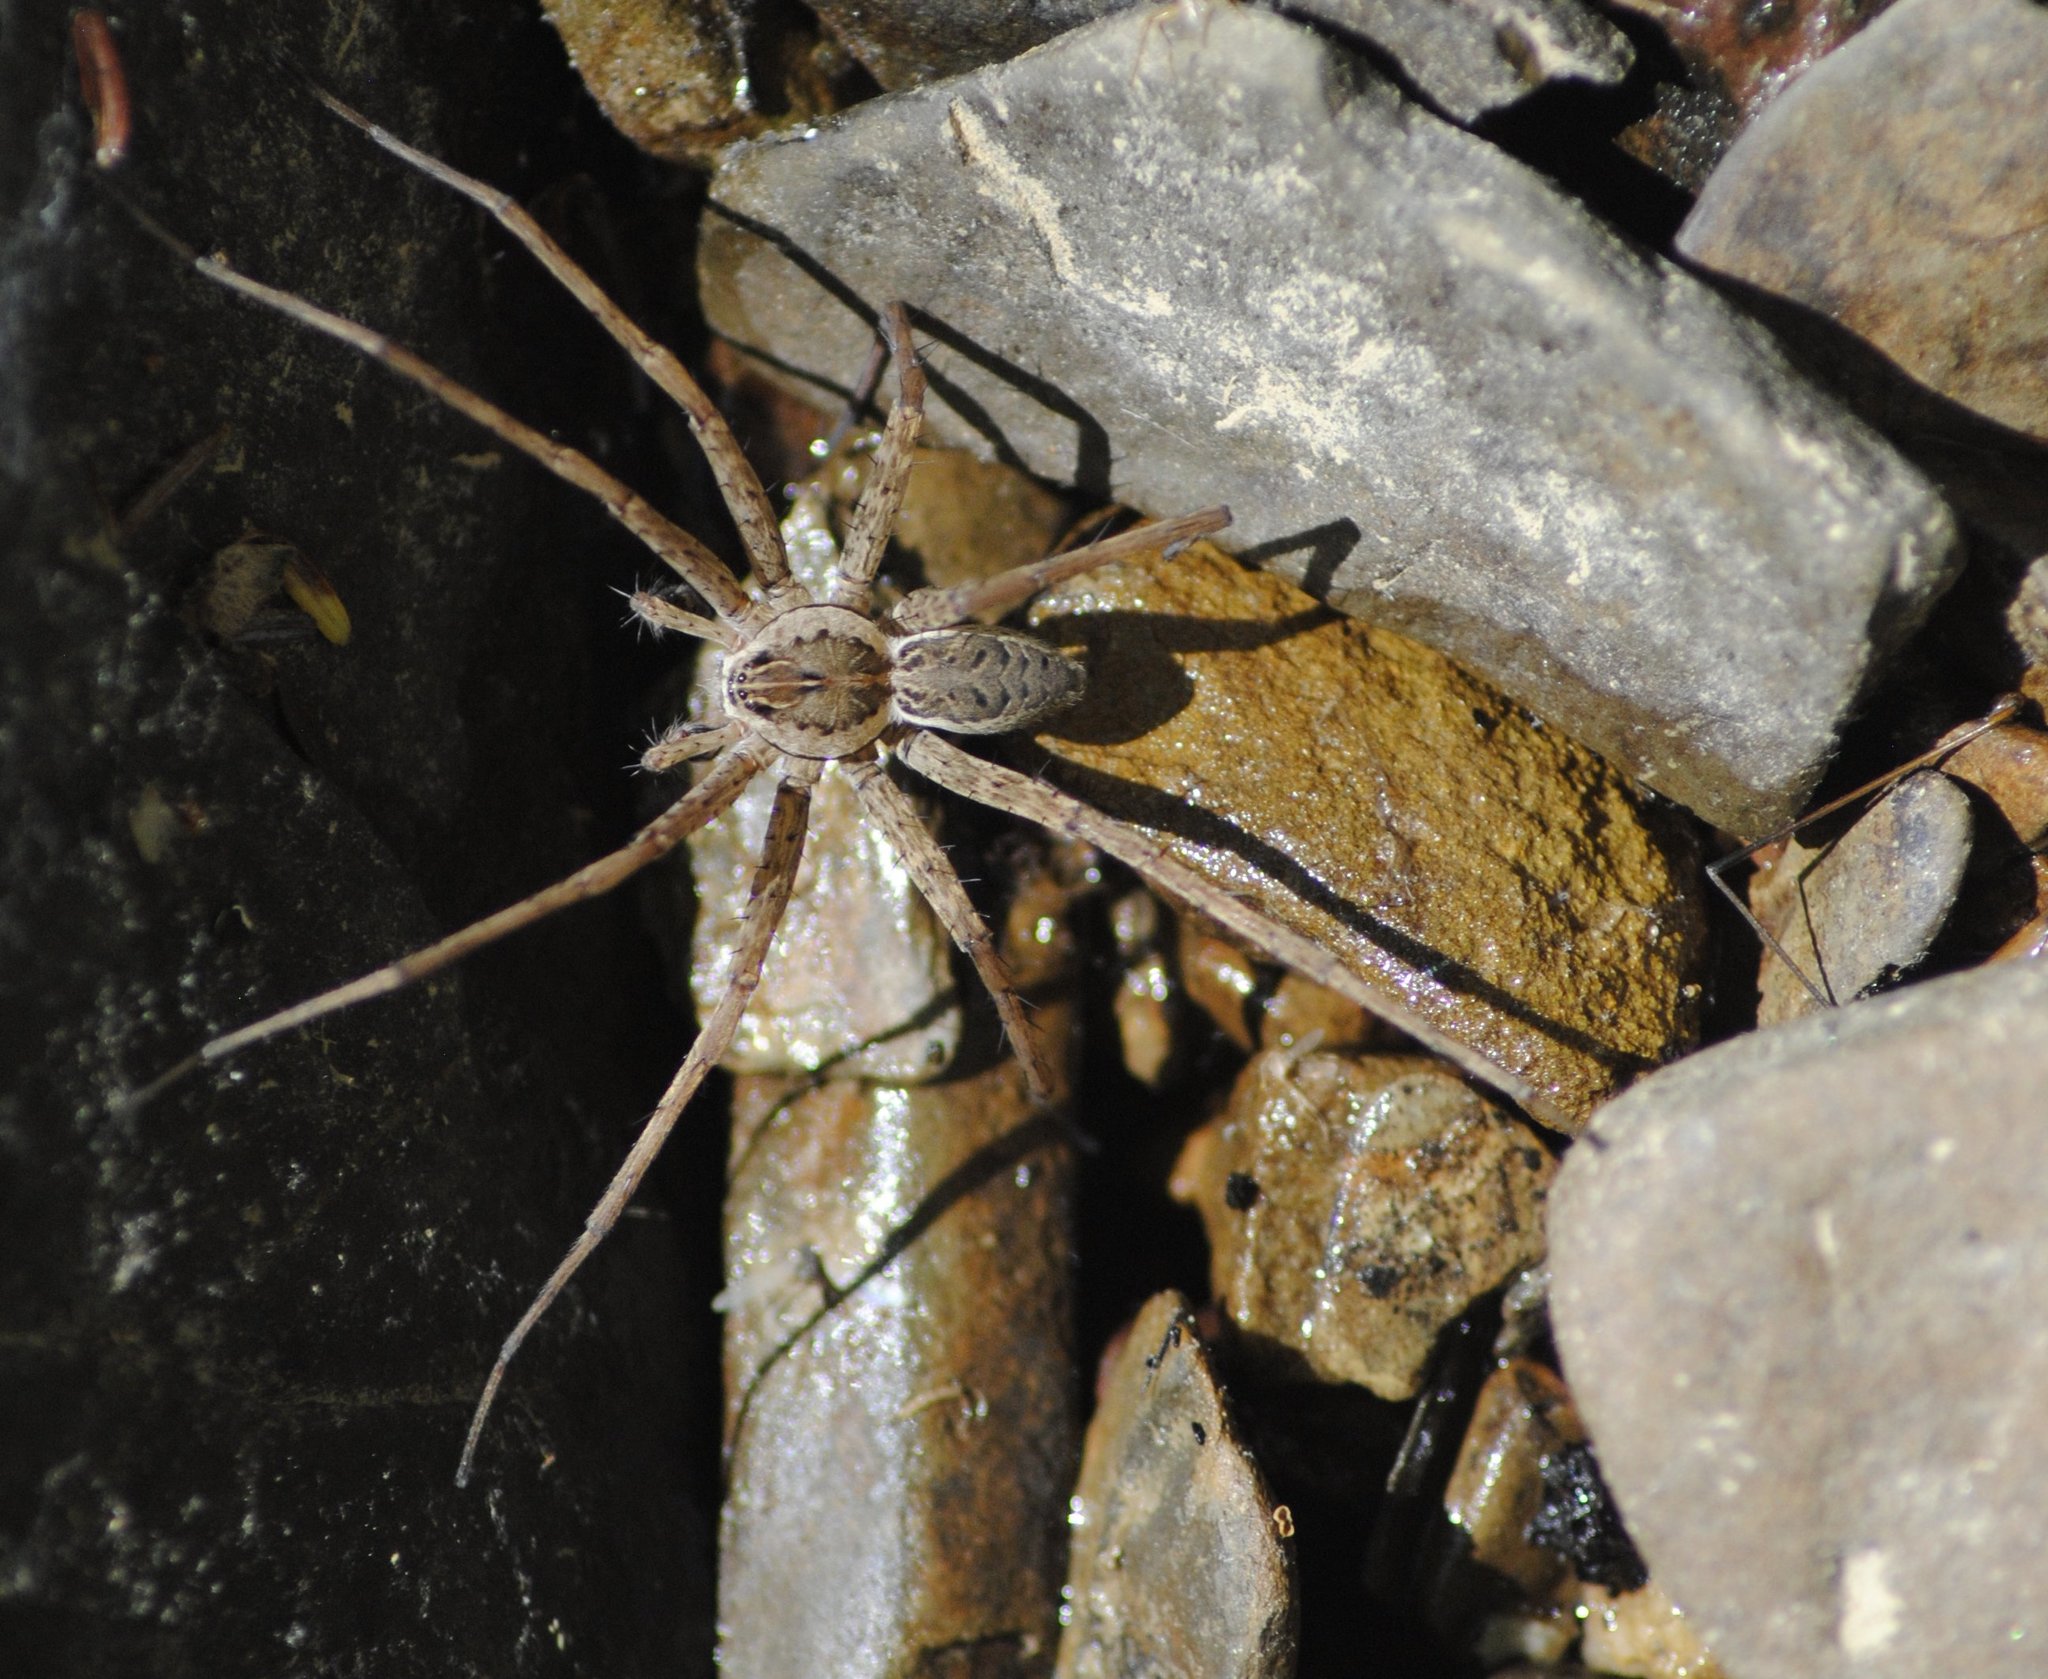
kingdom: Animalia
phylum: Arthropoda
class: Arachnida
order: Araneae
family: Pisauridae
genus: Dolomedes
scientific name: Dolomedes scriptus
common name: Striped fishing spider
